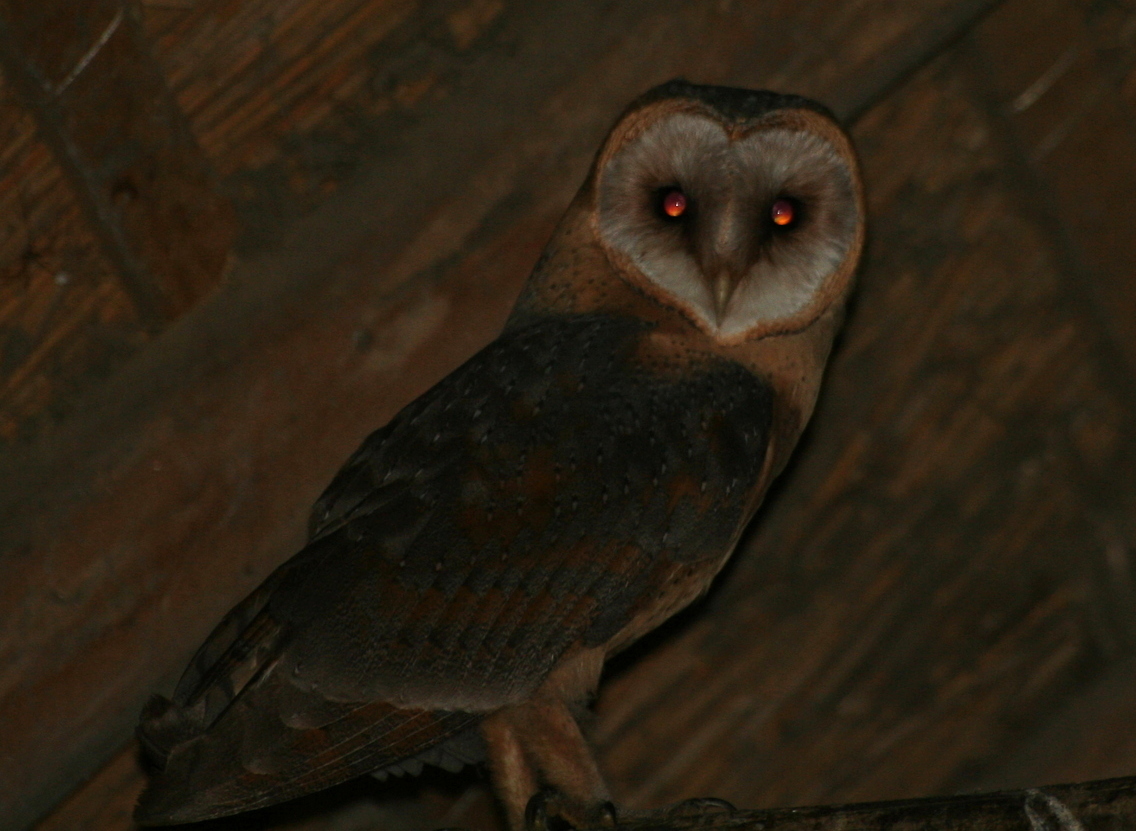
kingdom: Animalia
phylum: Chordata
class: Aves
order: Strigiformes
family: Tytonidae
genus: Tyto
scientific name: Tyto alba
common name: Barn owl
